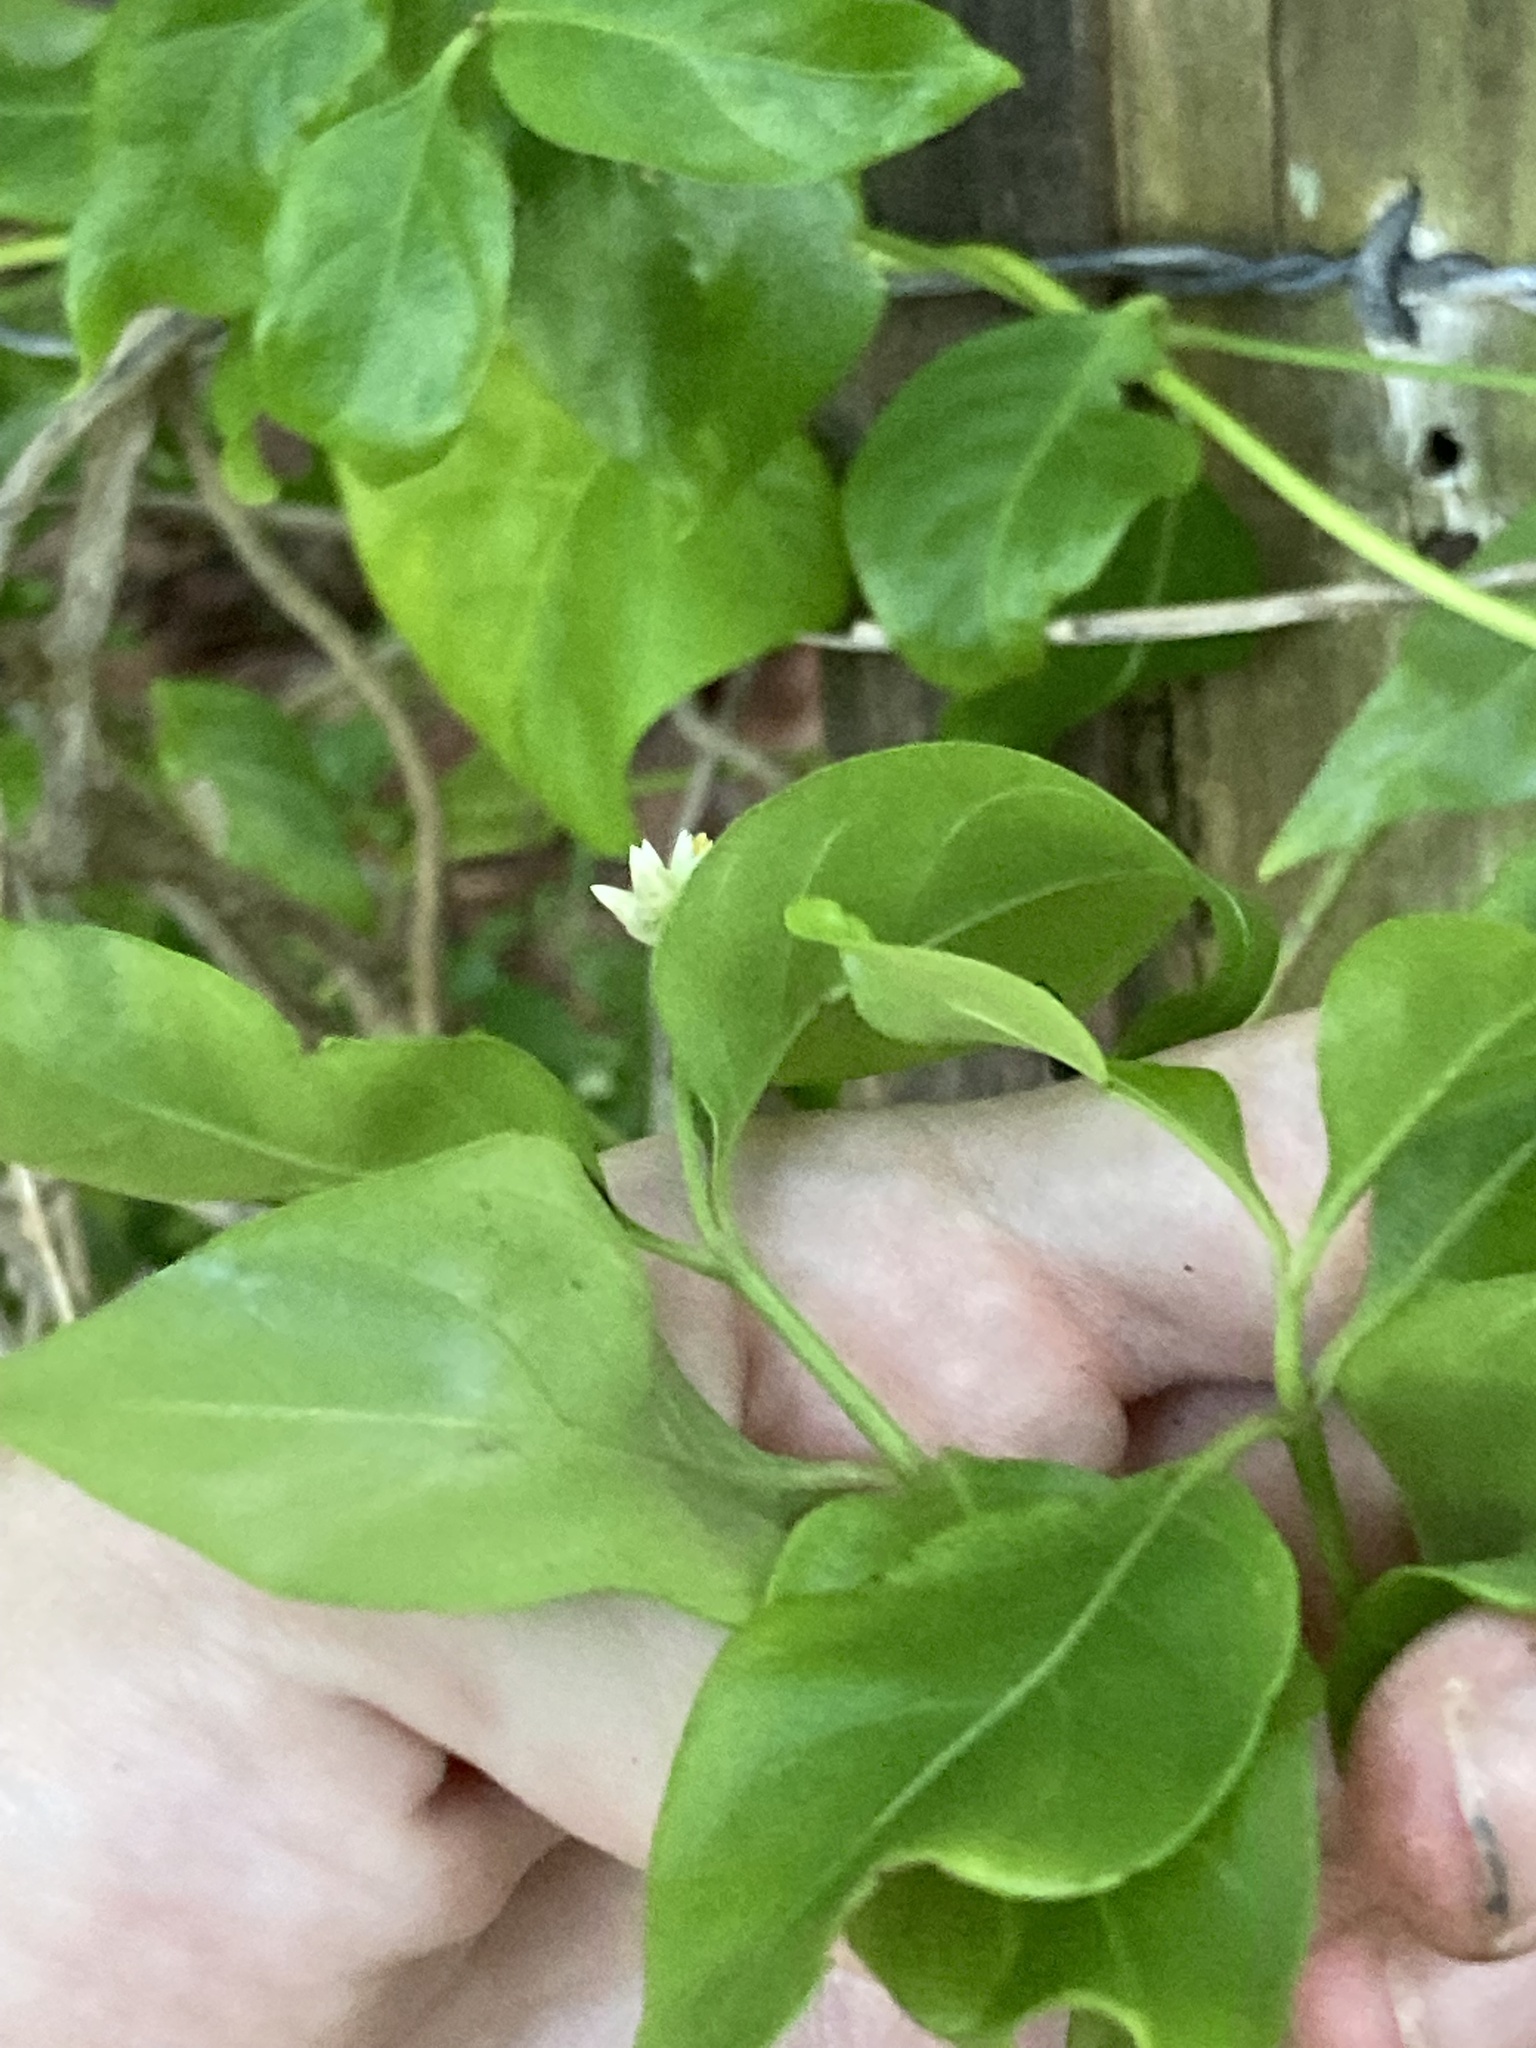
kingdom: Plantae
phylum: Tracheophyta
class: Magnoliopsida
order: Caryophyllales
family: Amaranthaceae
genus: Alternanthera
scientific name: Alternanthera flavescens
